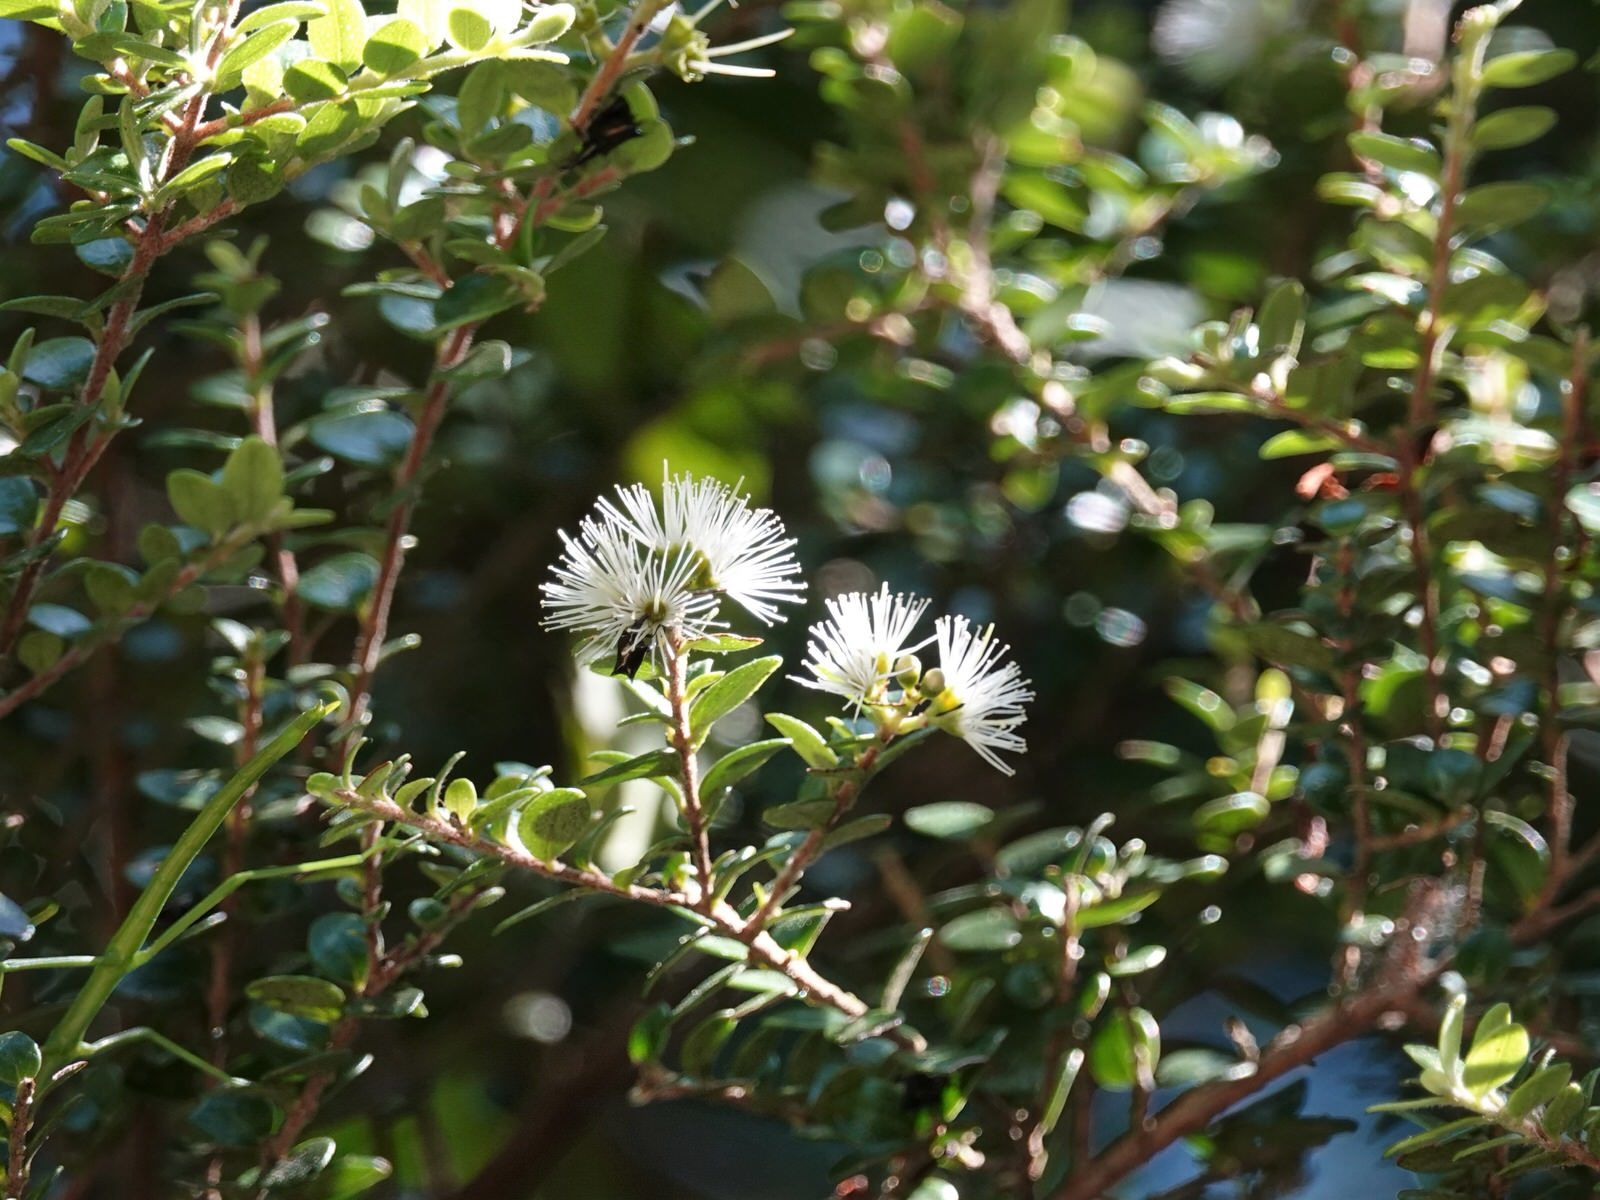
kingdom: Plantae
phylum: Tracheophyta
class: Magnoliopsida
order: Myrtales
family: Myrtaceae
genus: Metrosideros
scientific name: Metrosideros perforata
